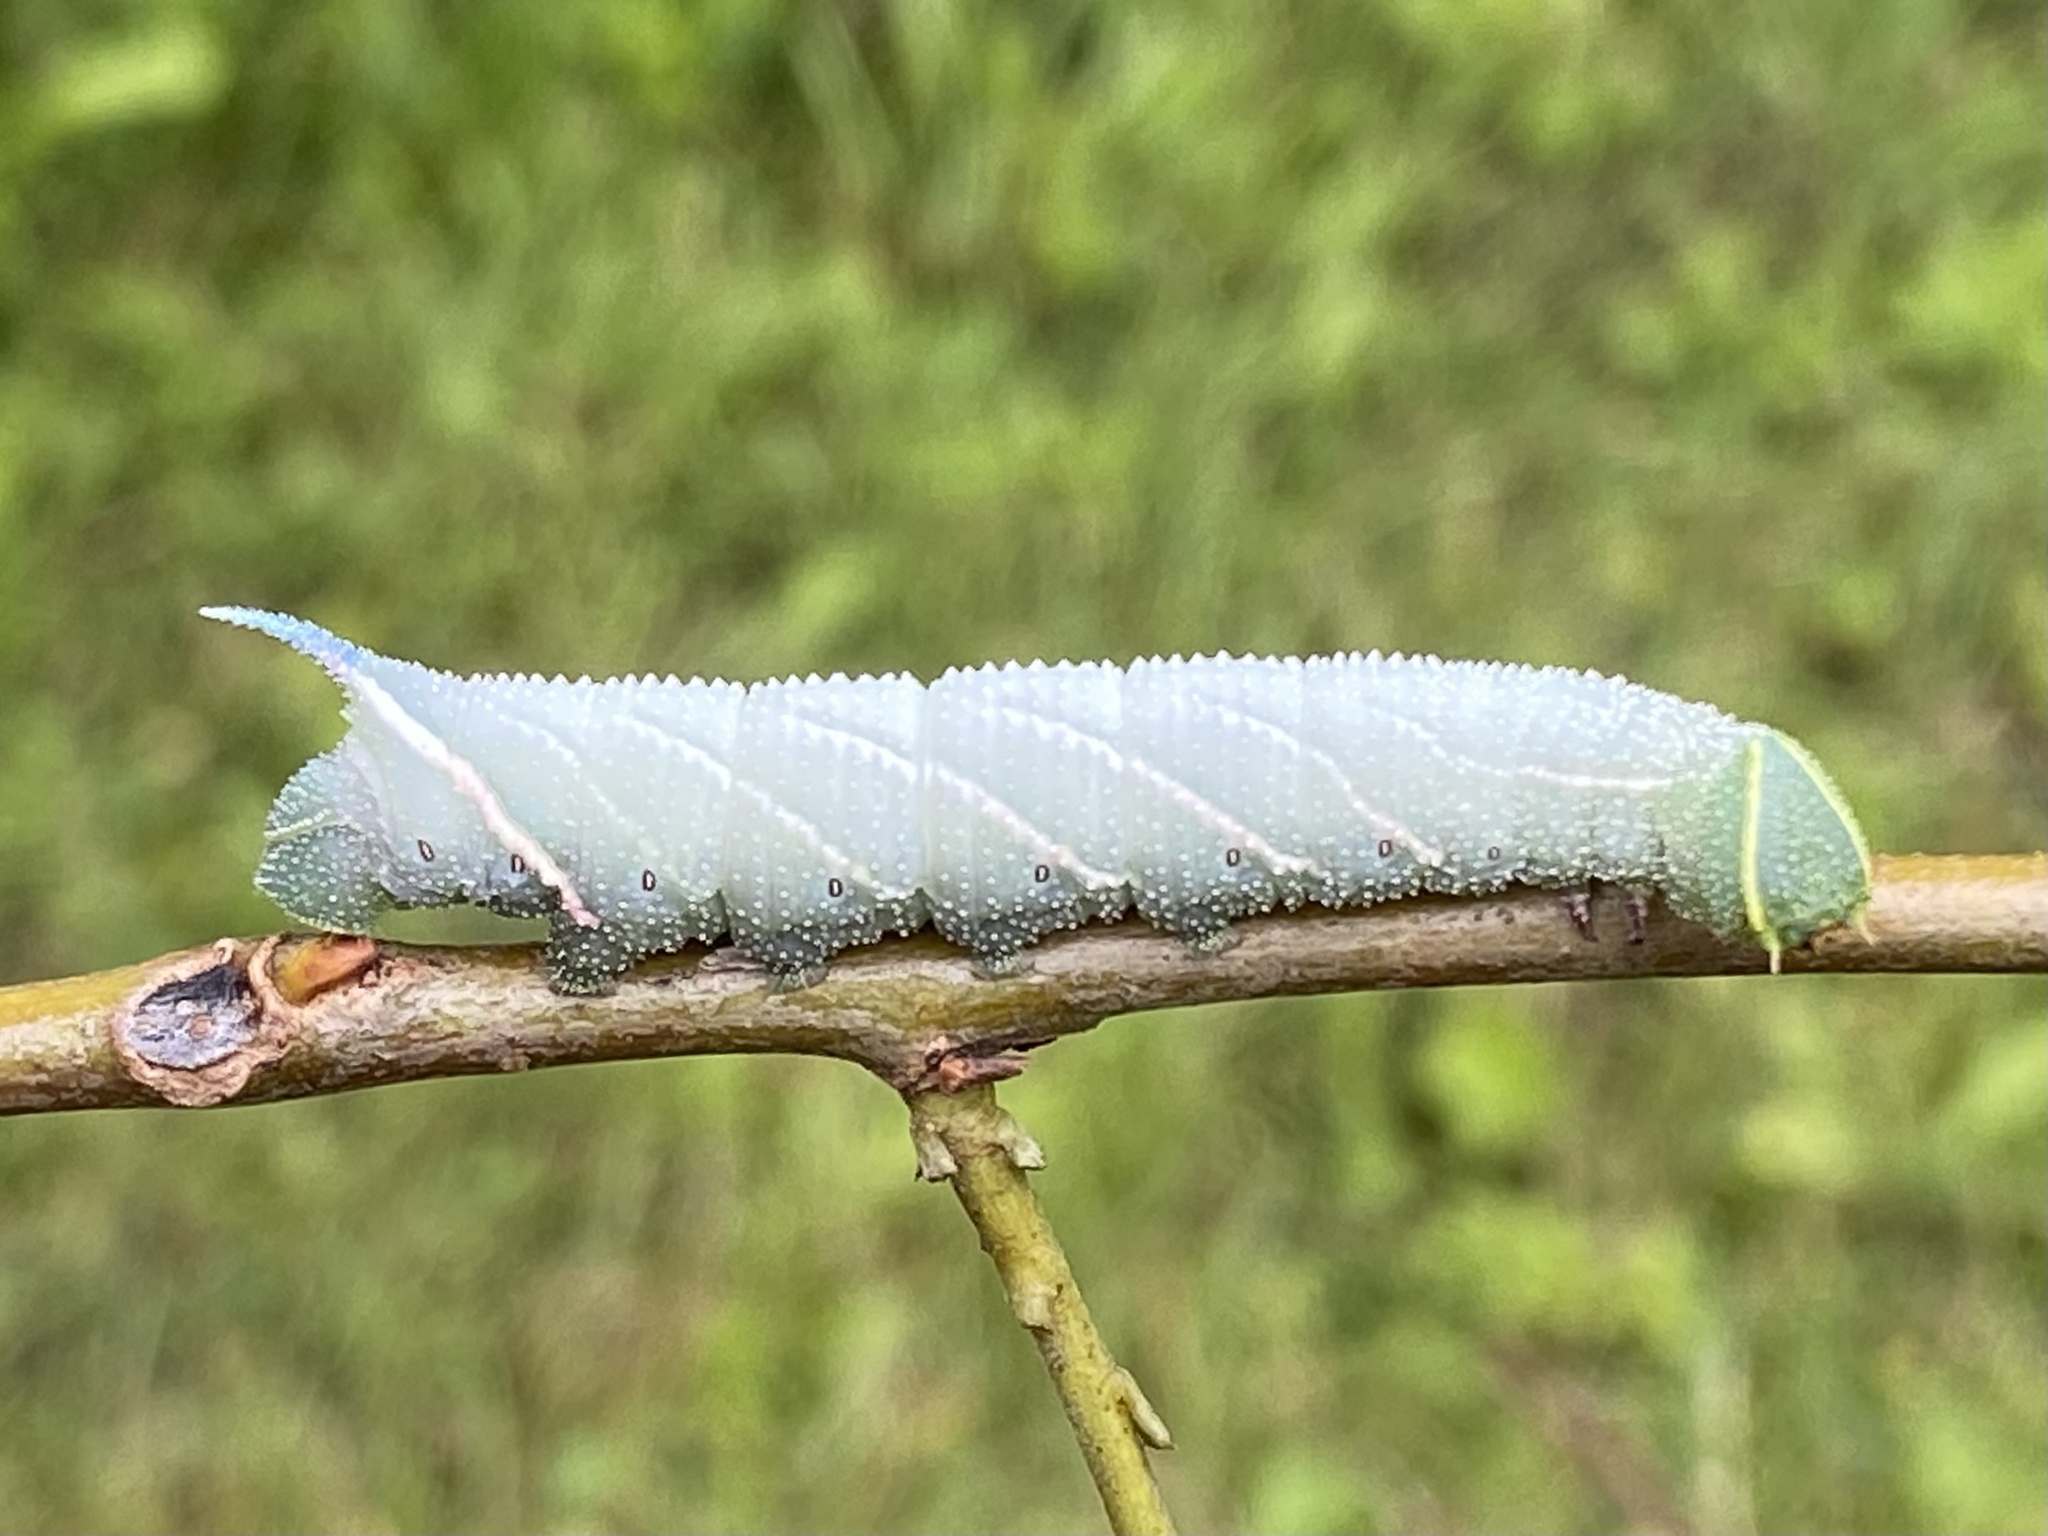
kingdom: Animalia
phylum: Arthropoda
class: Insecta
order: Lepidoptera
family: Sphingidae
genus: Smerinthus
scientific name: Smerinthus jamaicensis
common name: Twin spotted sphinx
